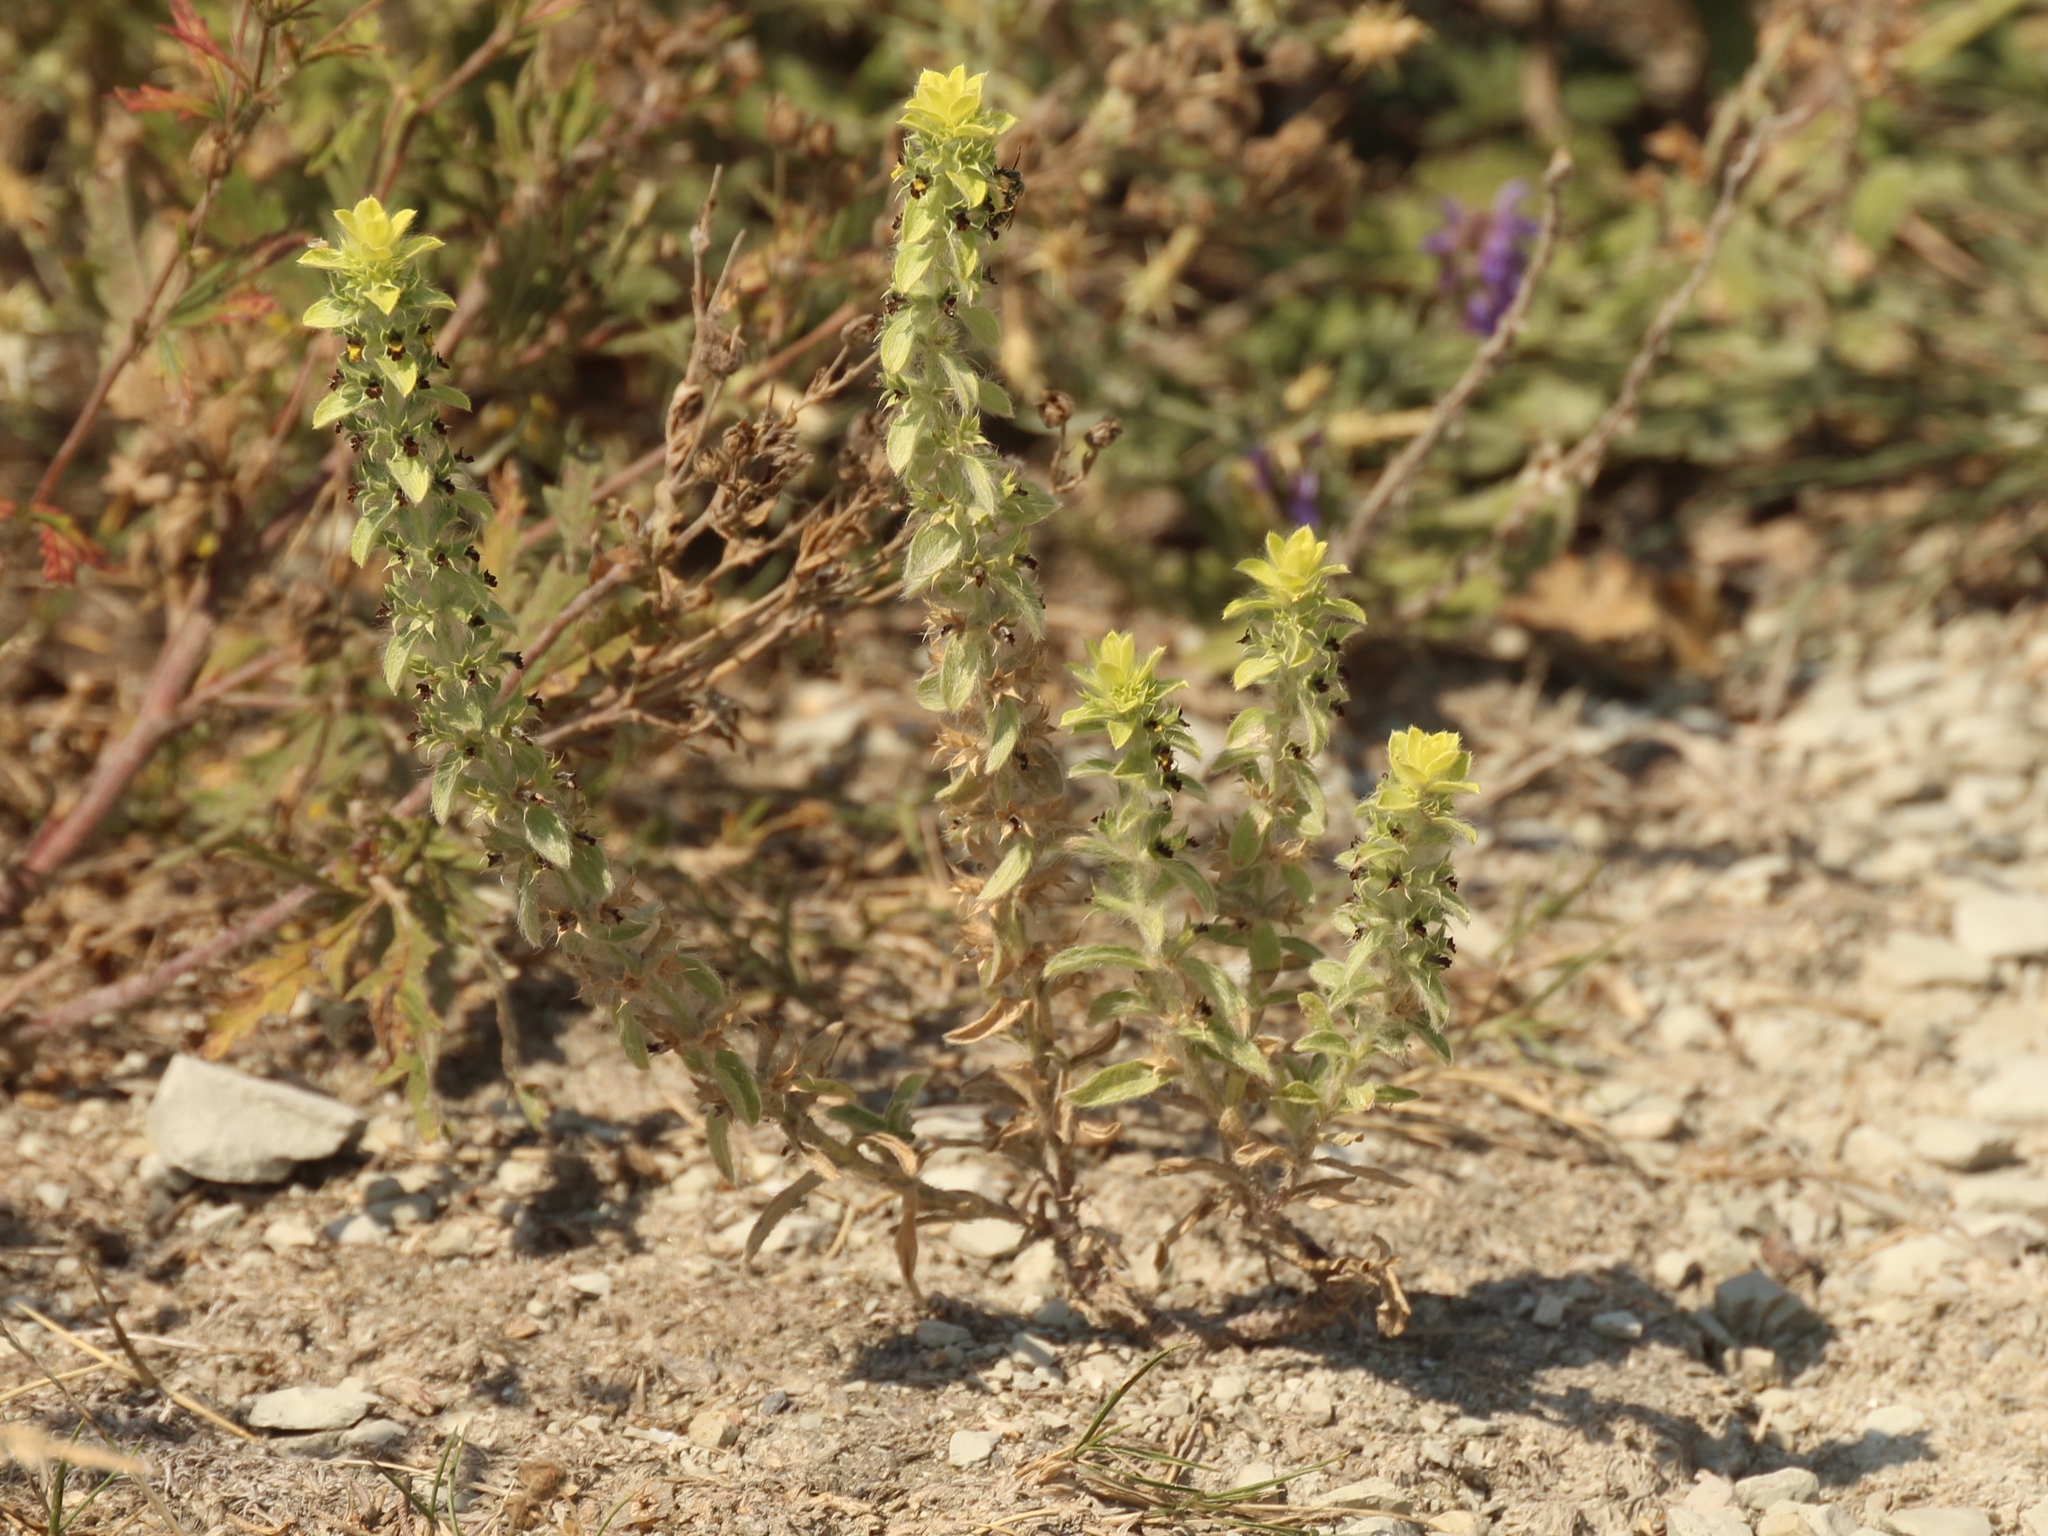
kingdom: Plantae
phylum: Tracheophyta
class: Magnoliopsida
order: Lamiales
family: Lamiaceae
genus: Sideritis
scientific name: Sideritis montana
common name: Mountain ironwort
